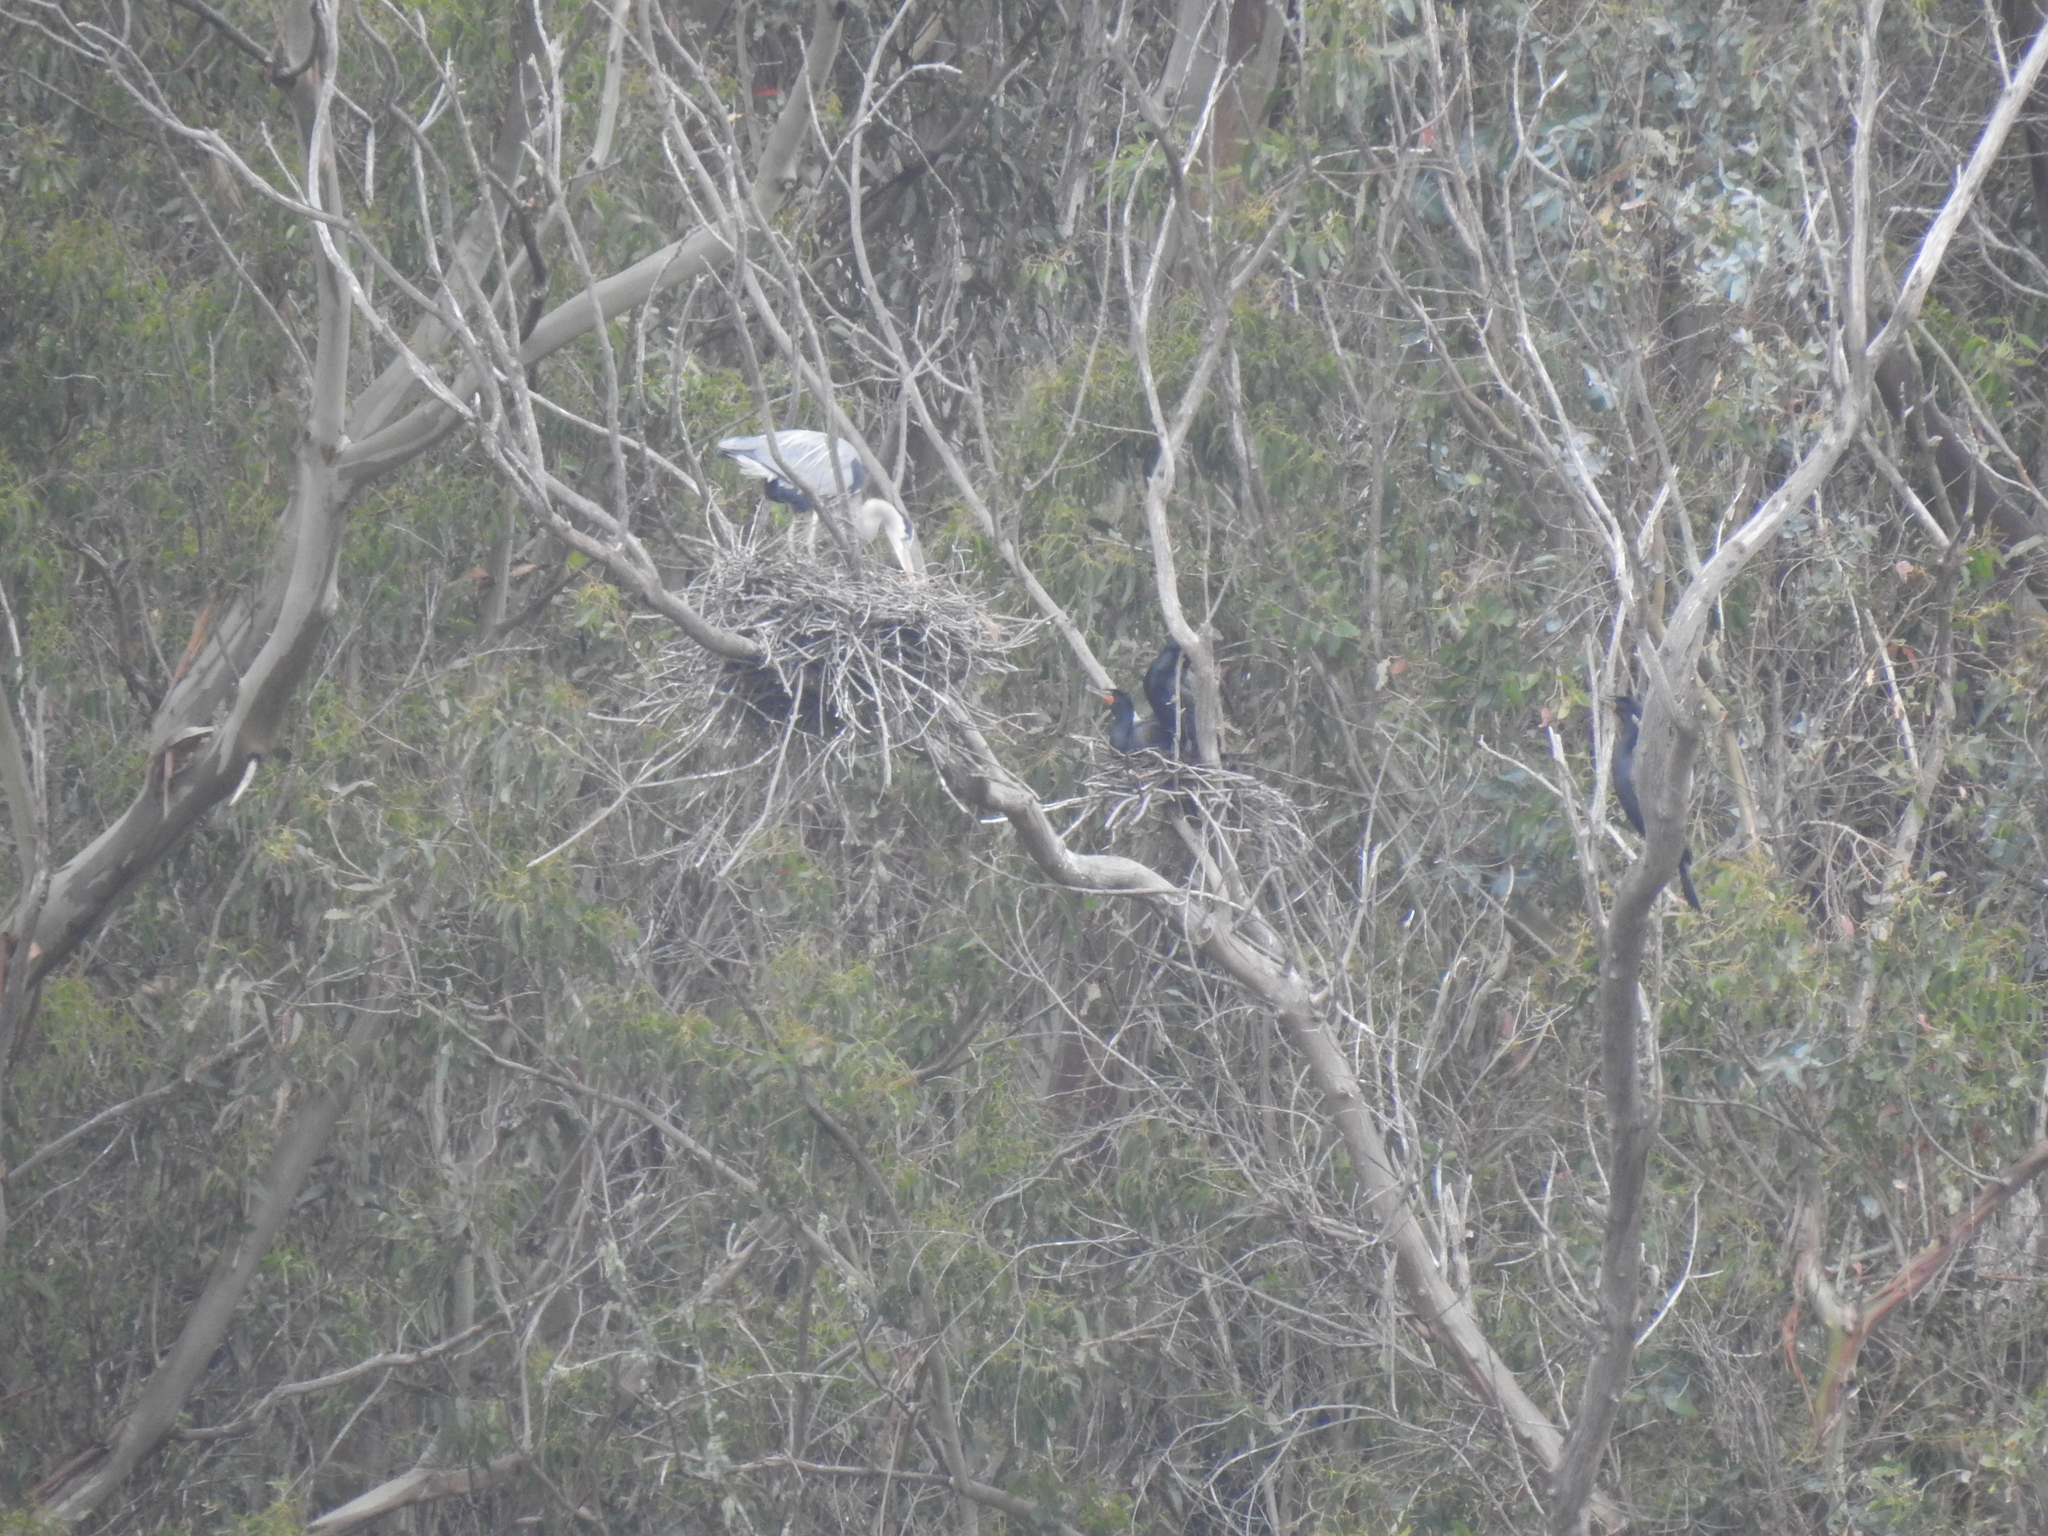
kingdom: Animalia
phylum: Chordata
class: Aves
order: Suliformes
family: Phalacrocoracidae
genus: Phalacrocorax
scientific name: Phalacrocorax auritus
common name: Double-crested cormorant
